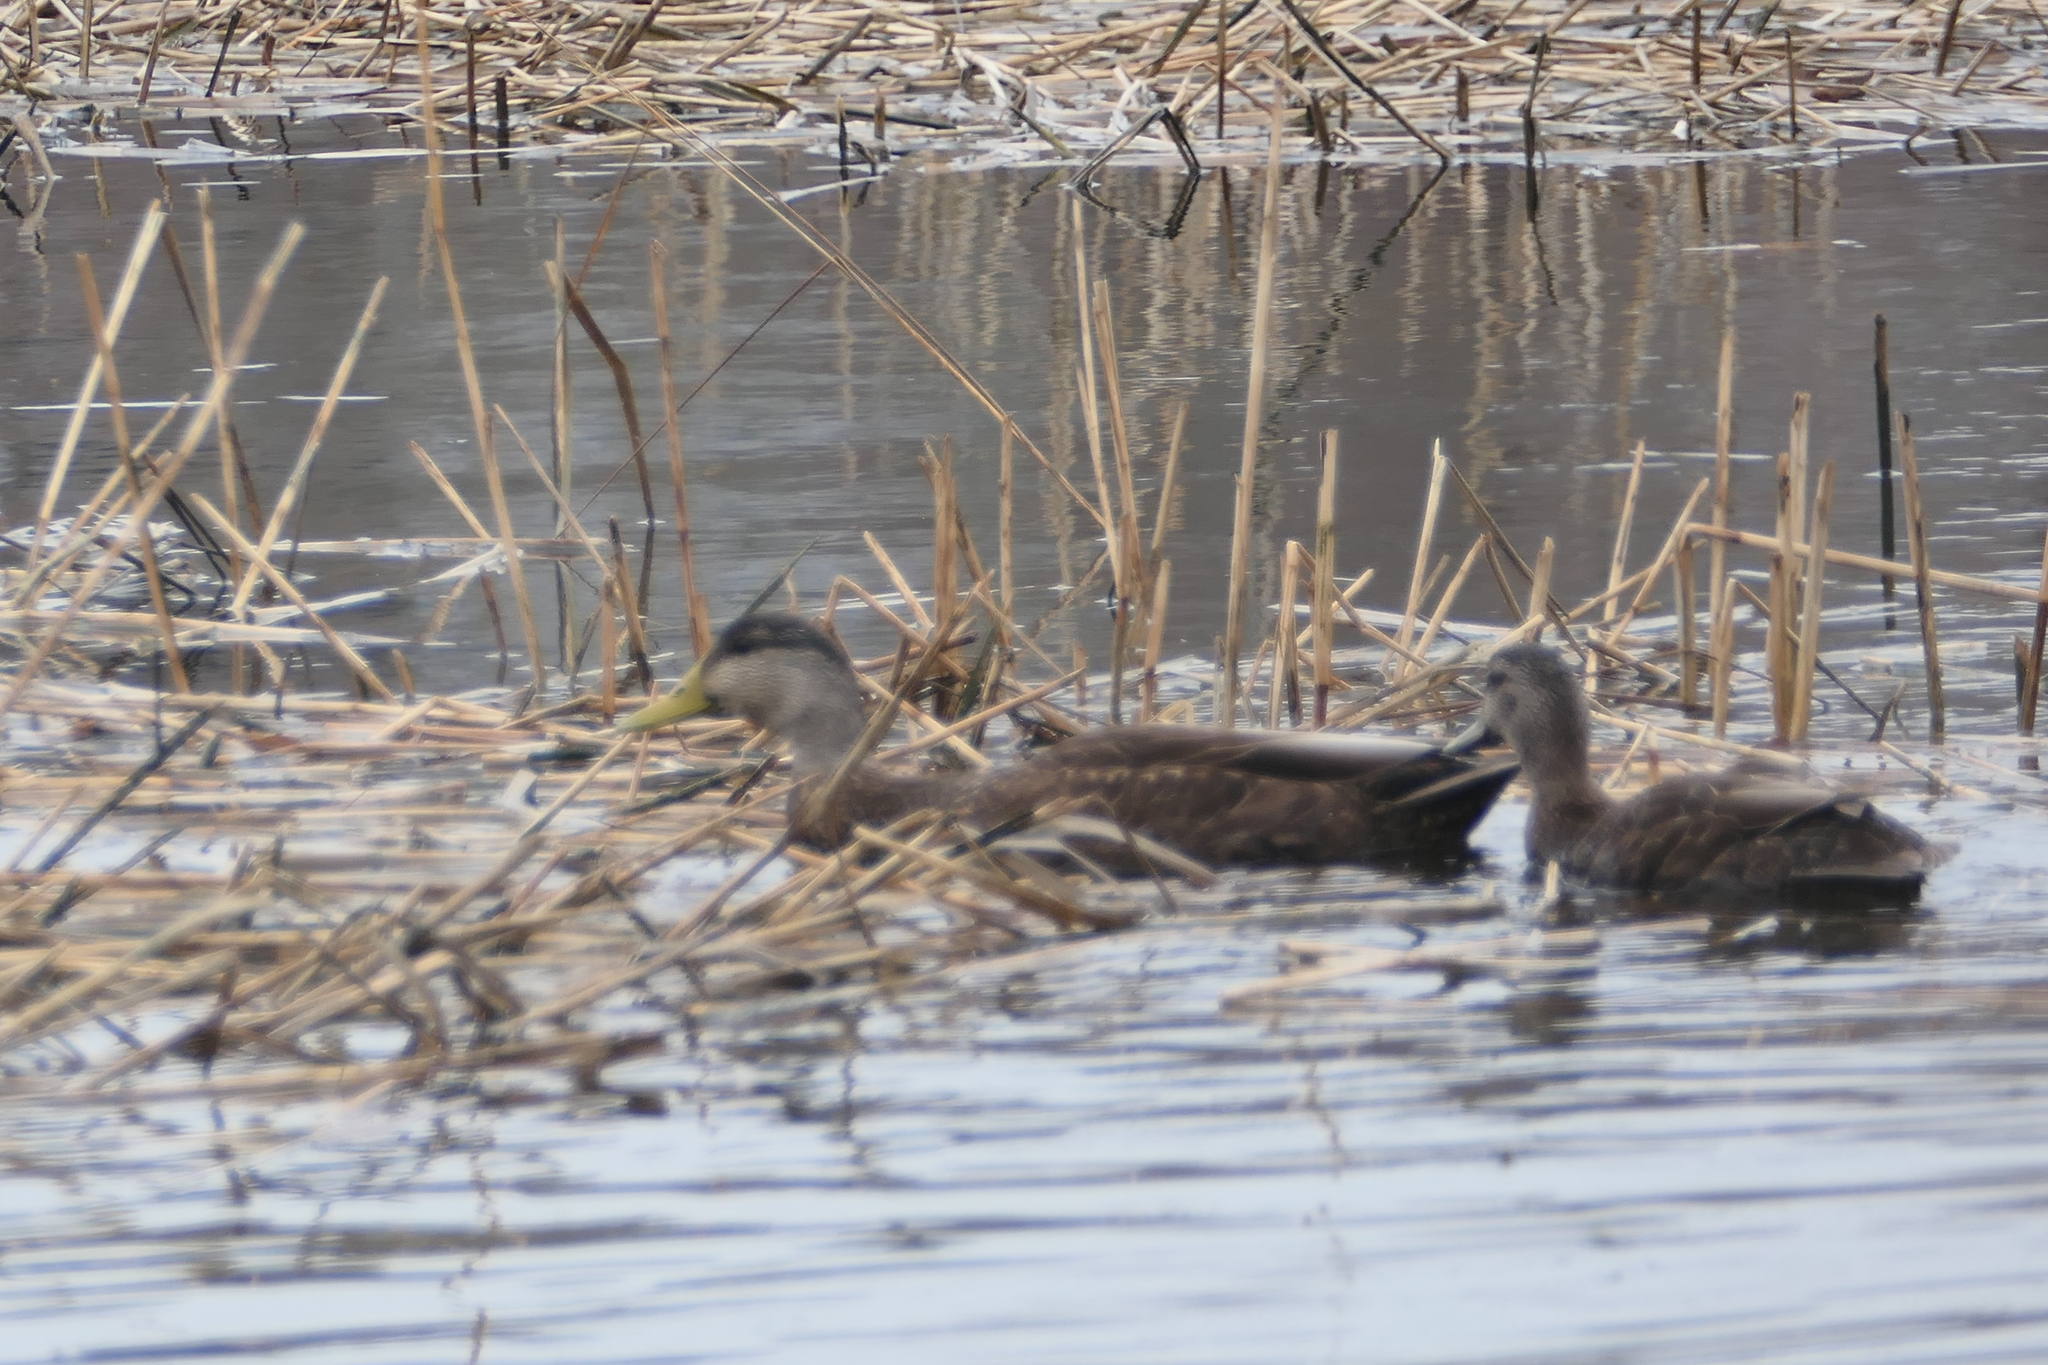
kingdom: Animalia
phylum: Chordata
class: Aves
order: Anseriformes
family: Anatidae
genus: Anas
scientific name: Anas rubripes
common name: American black duck
